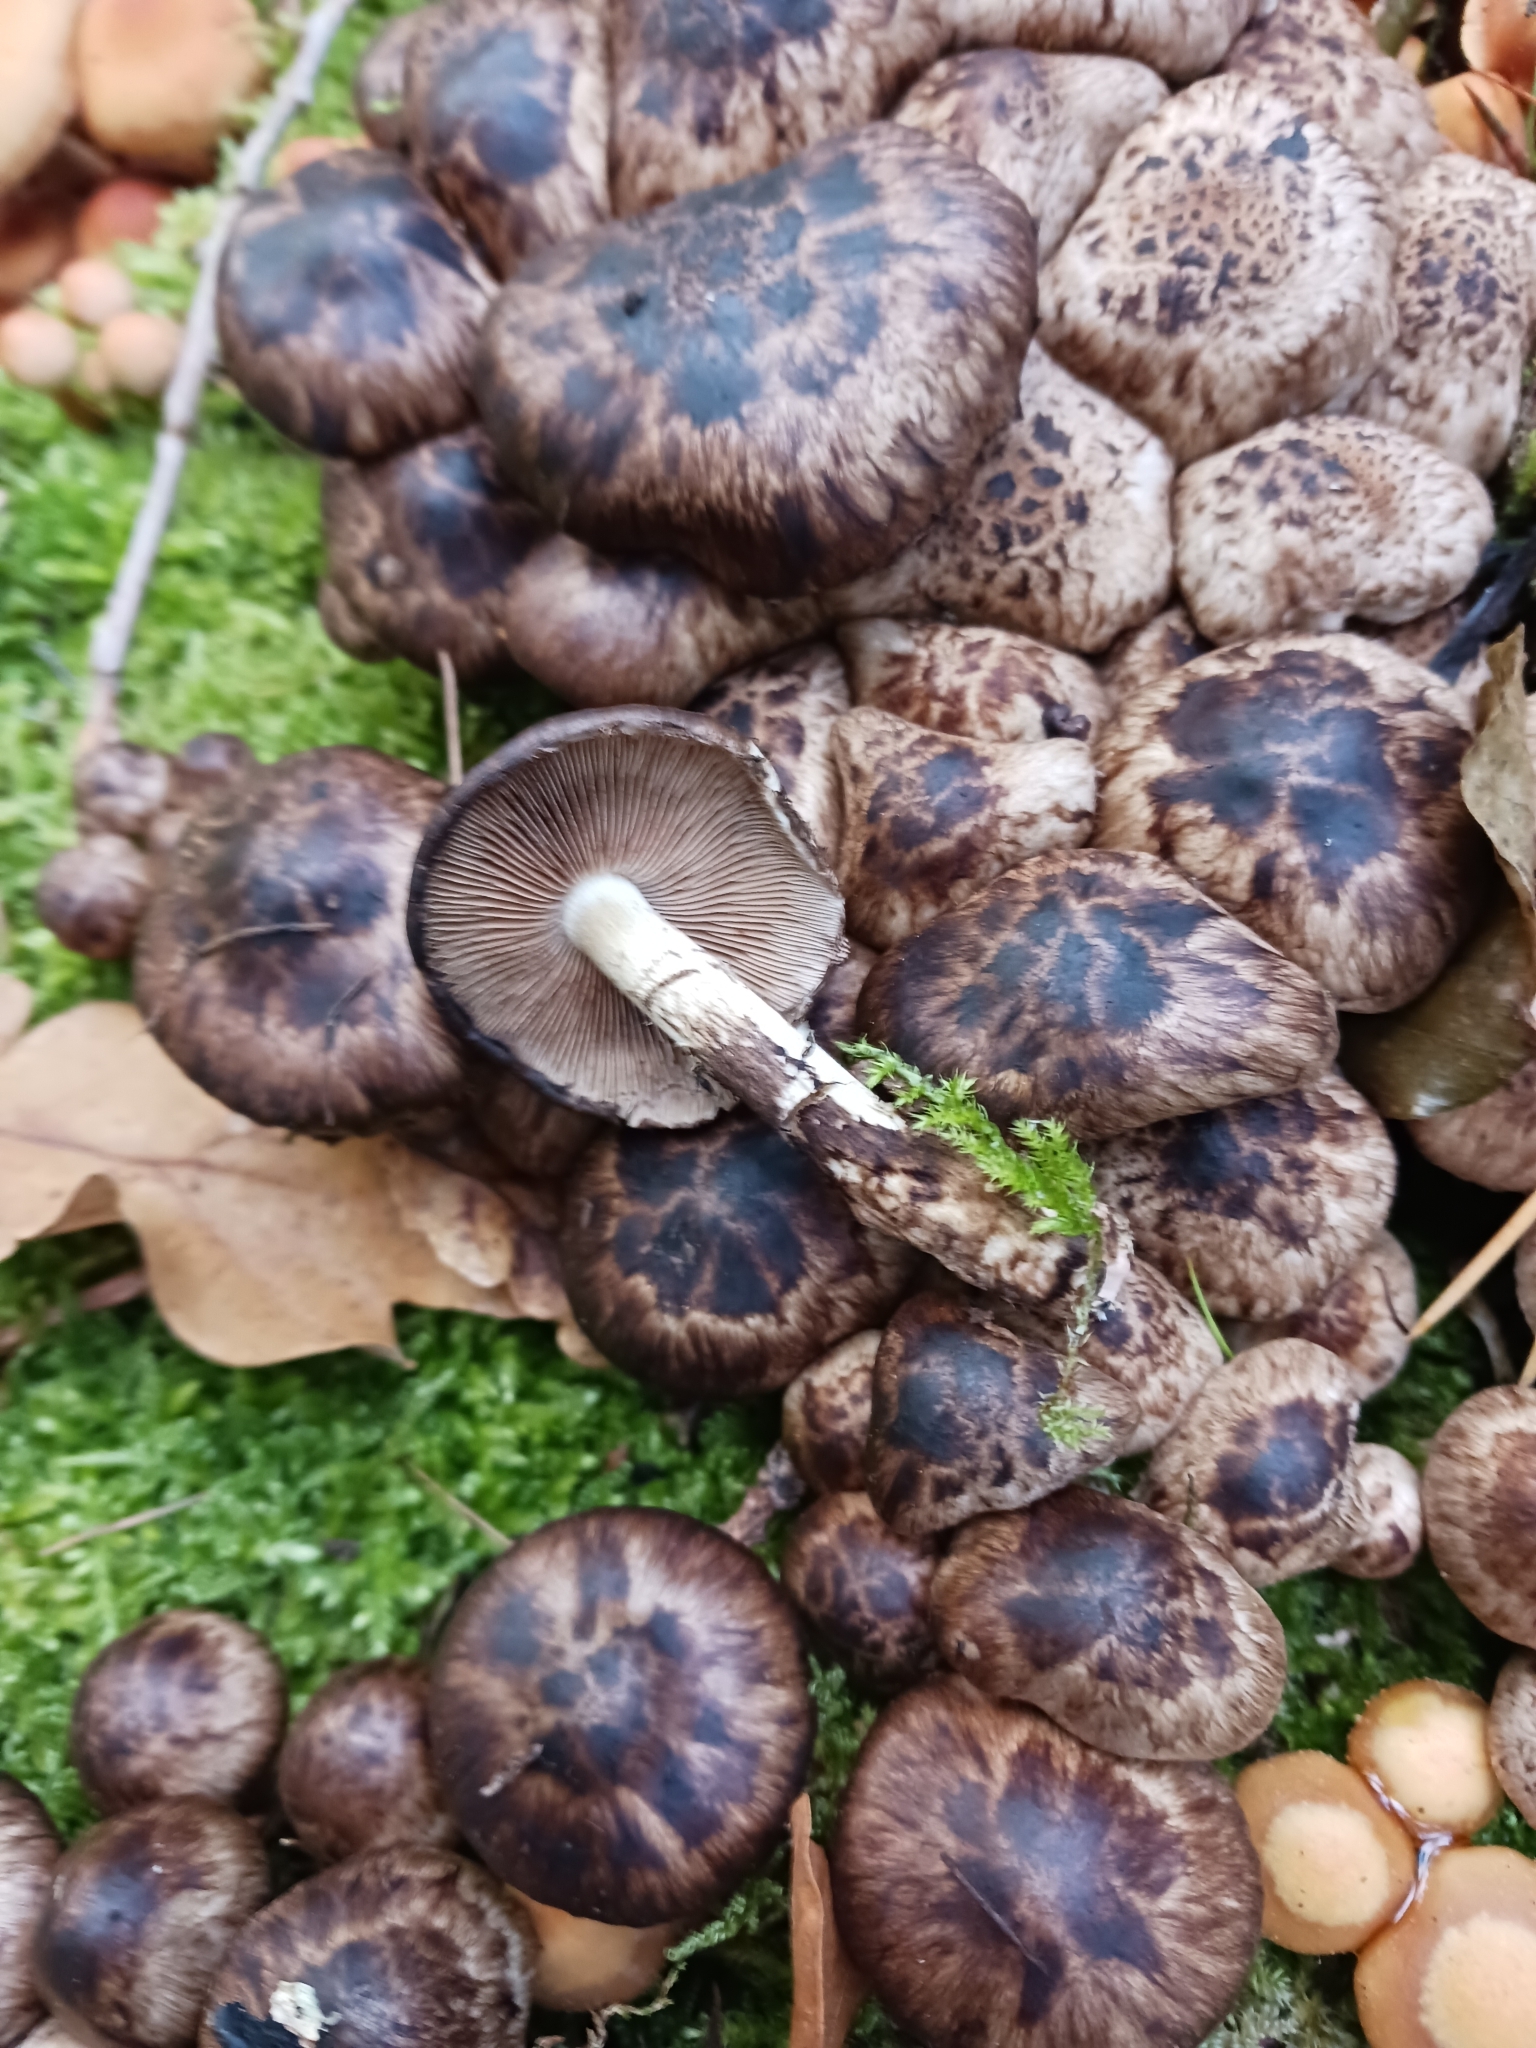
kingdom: Fungi
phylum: Basidiomycota
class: Agaricomycetes
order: Agaricales
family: Psathyrellaceae
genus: Psathyrella
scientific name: Psathyrella maculata
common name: Spotted brittlestem
